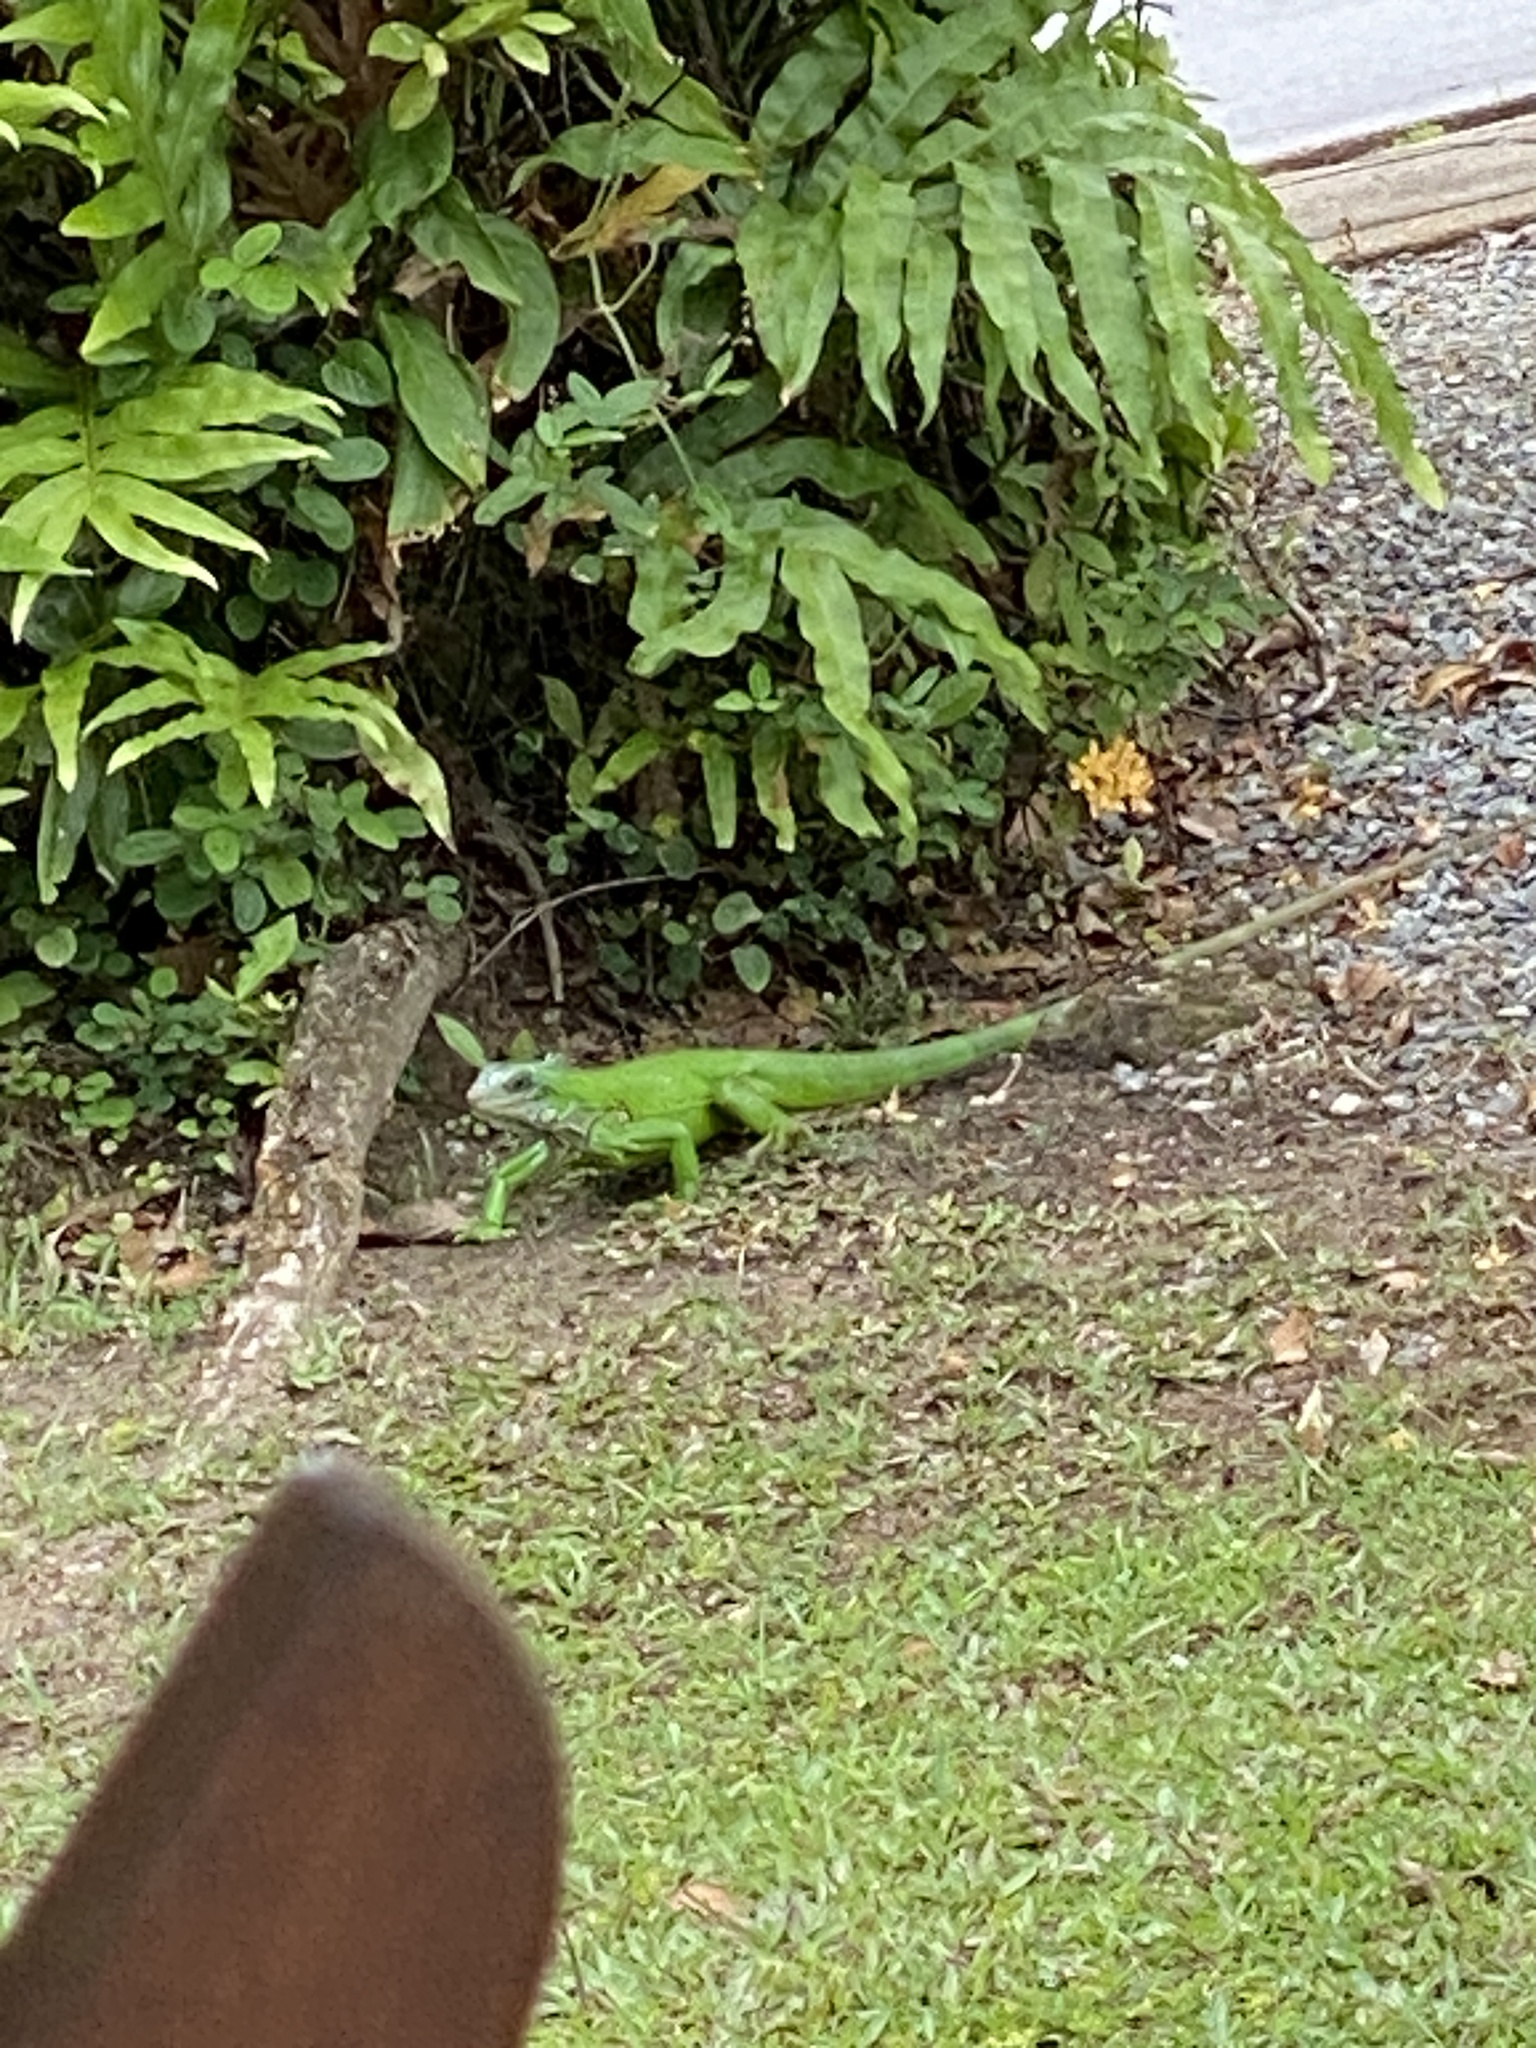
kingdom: Animalia
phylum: Chordata
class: Squamata
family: Iguanidae
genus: Iguana
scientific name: Iguana iguana
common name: Green iguana
